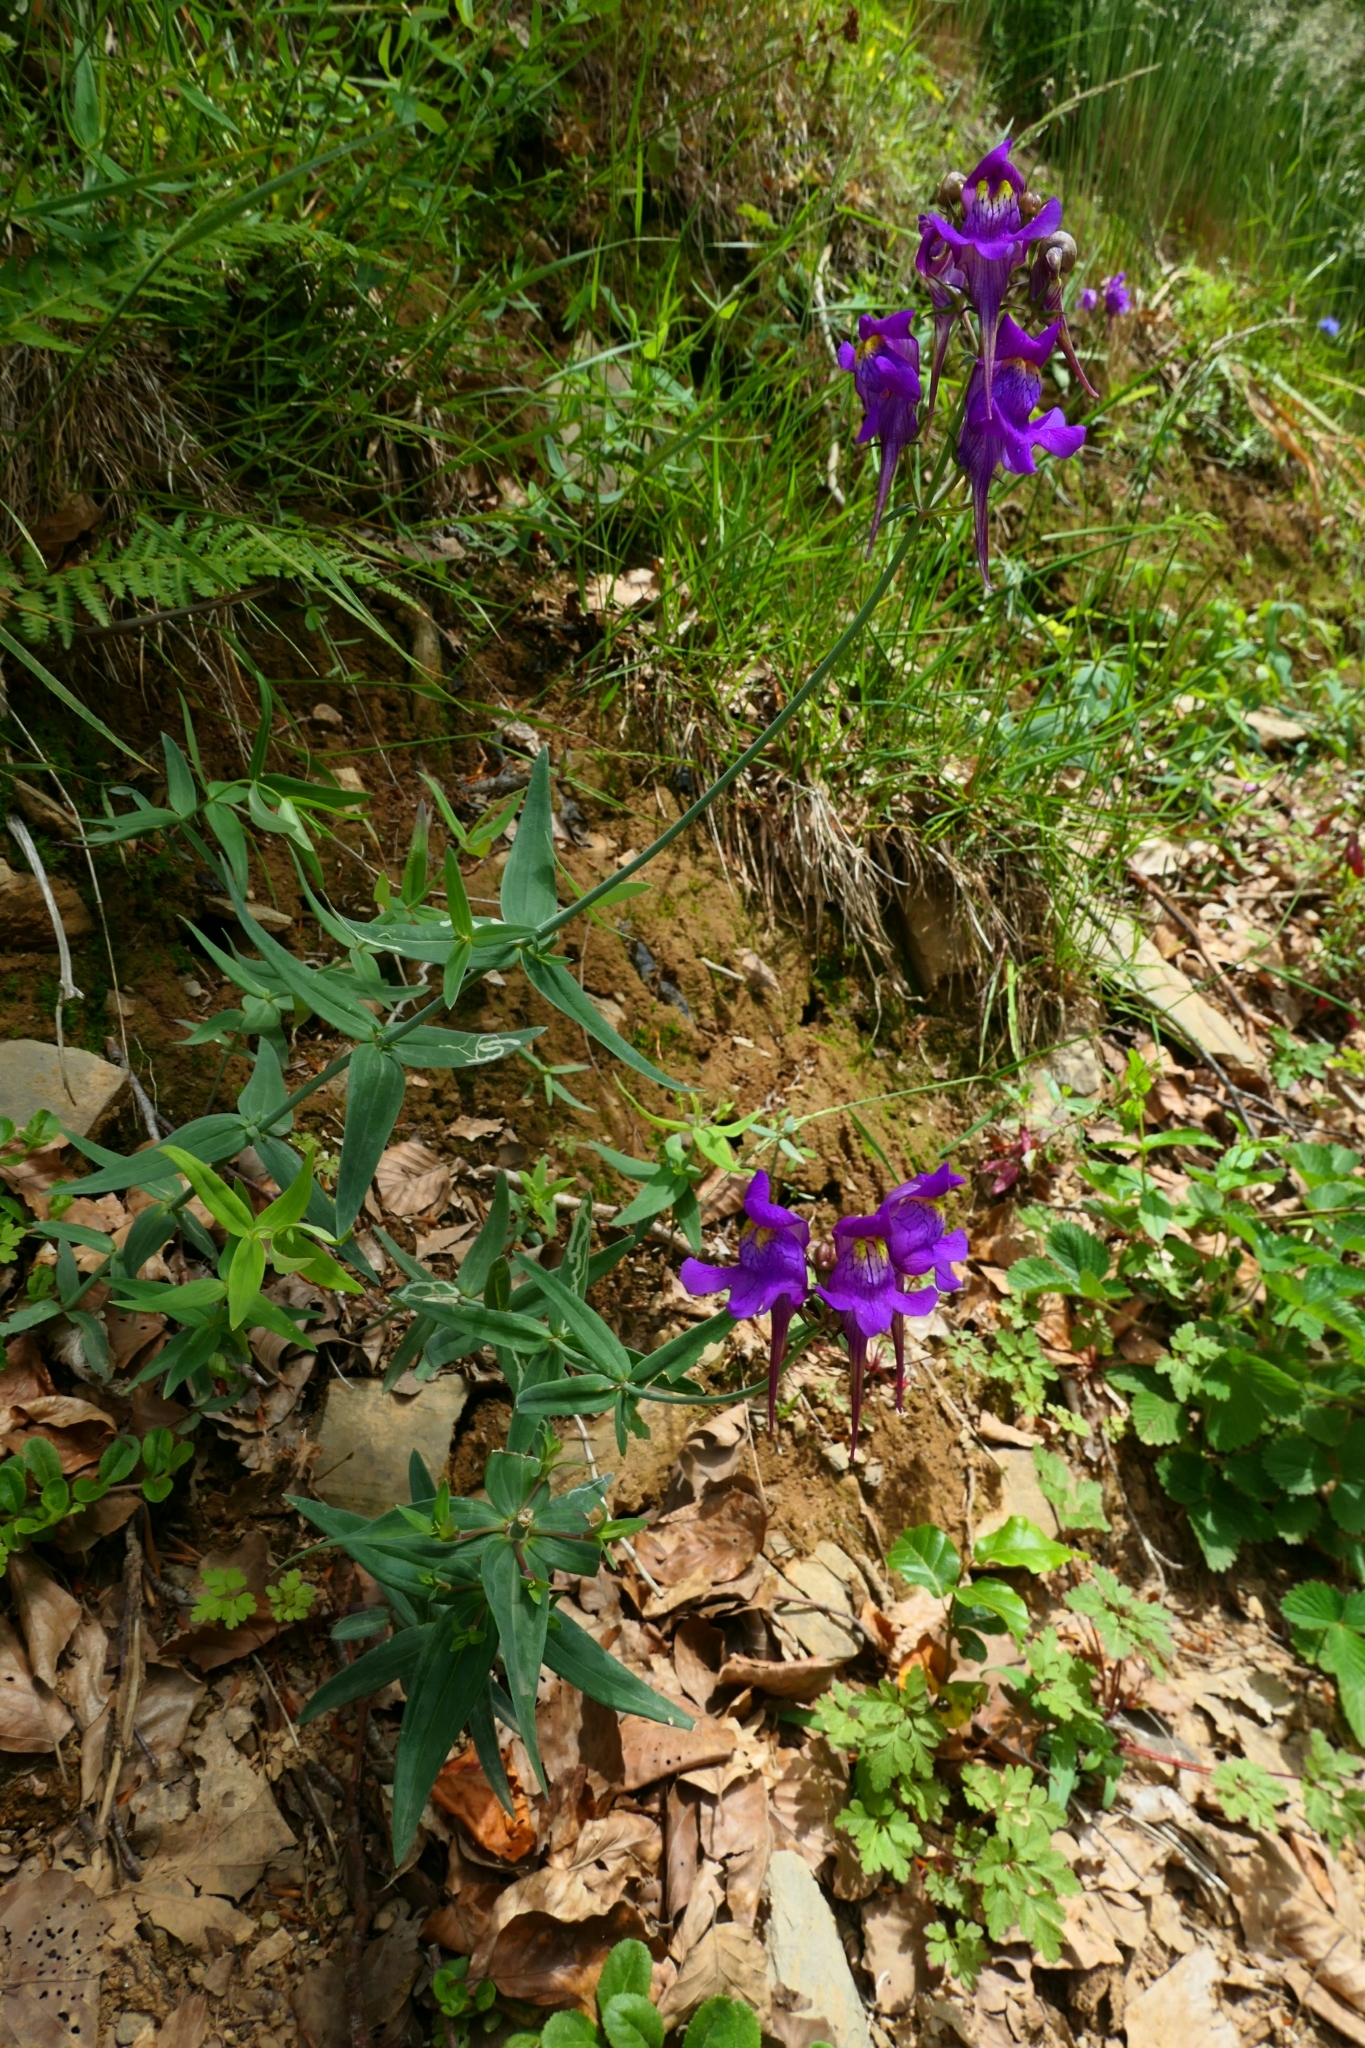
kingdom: Plantae
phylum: Tracheophyta
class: Magnoliopsida
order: Lamiales
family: Plantaginaceae
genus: Linaria
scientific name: Linaria triornithophora
